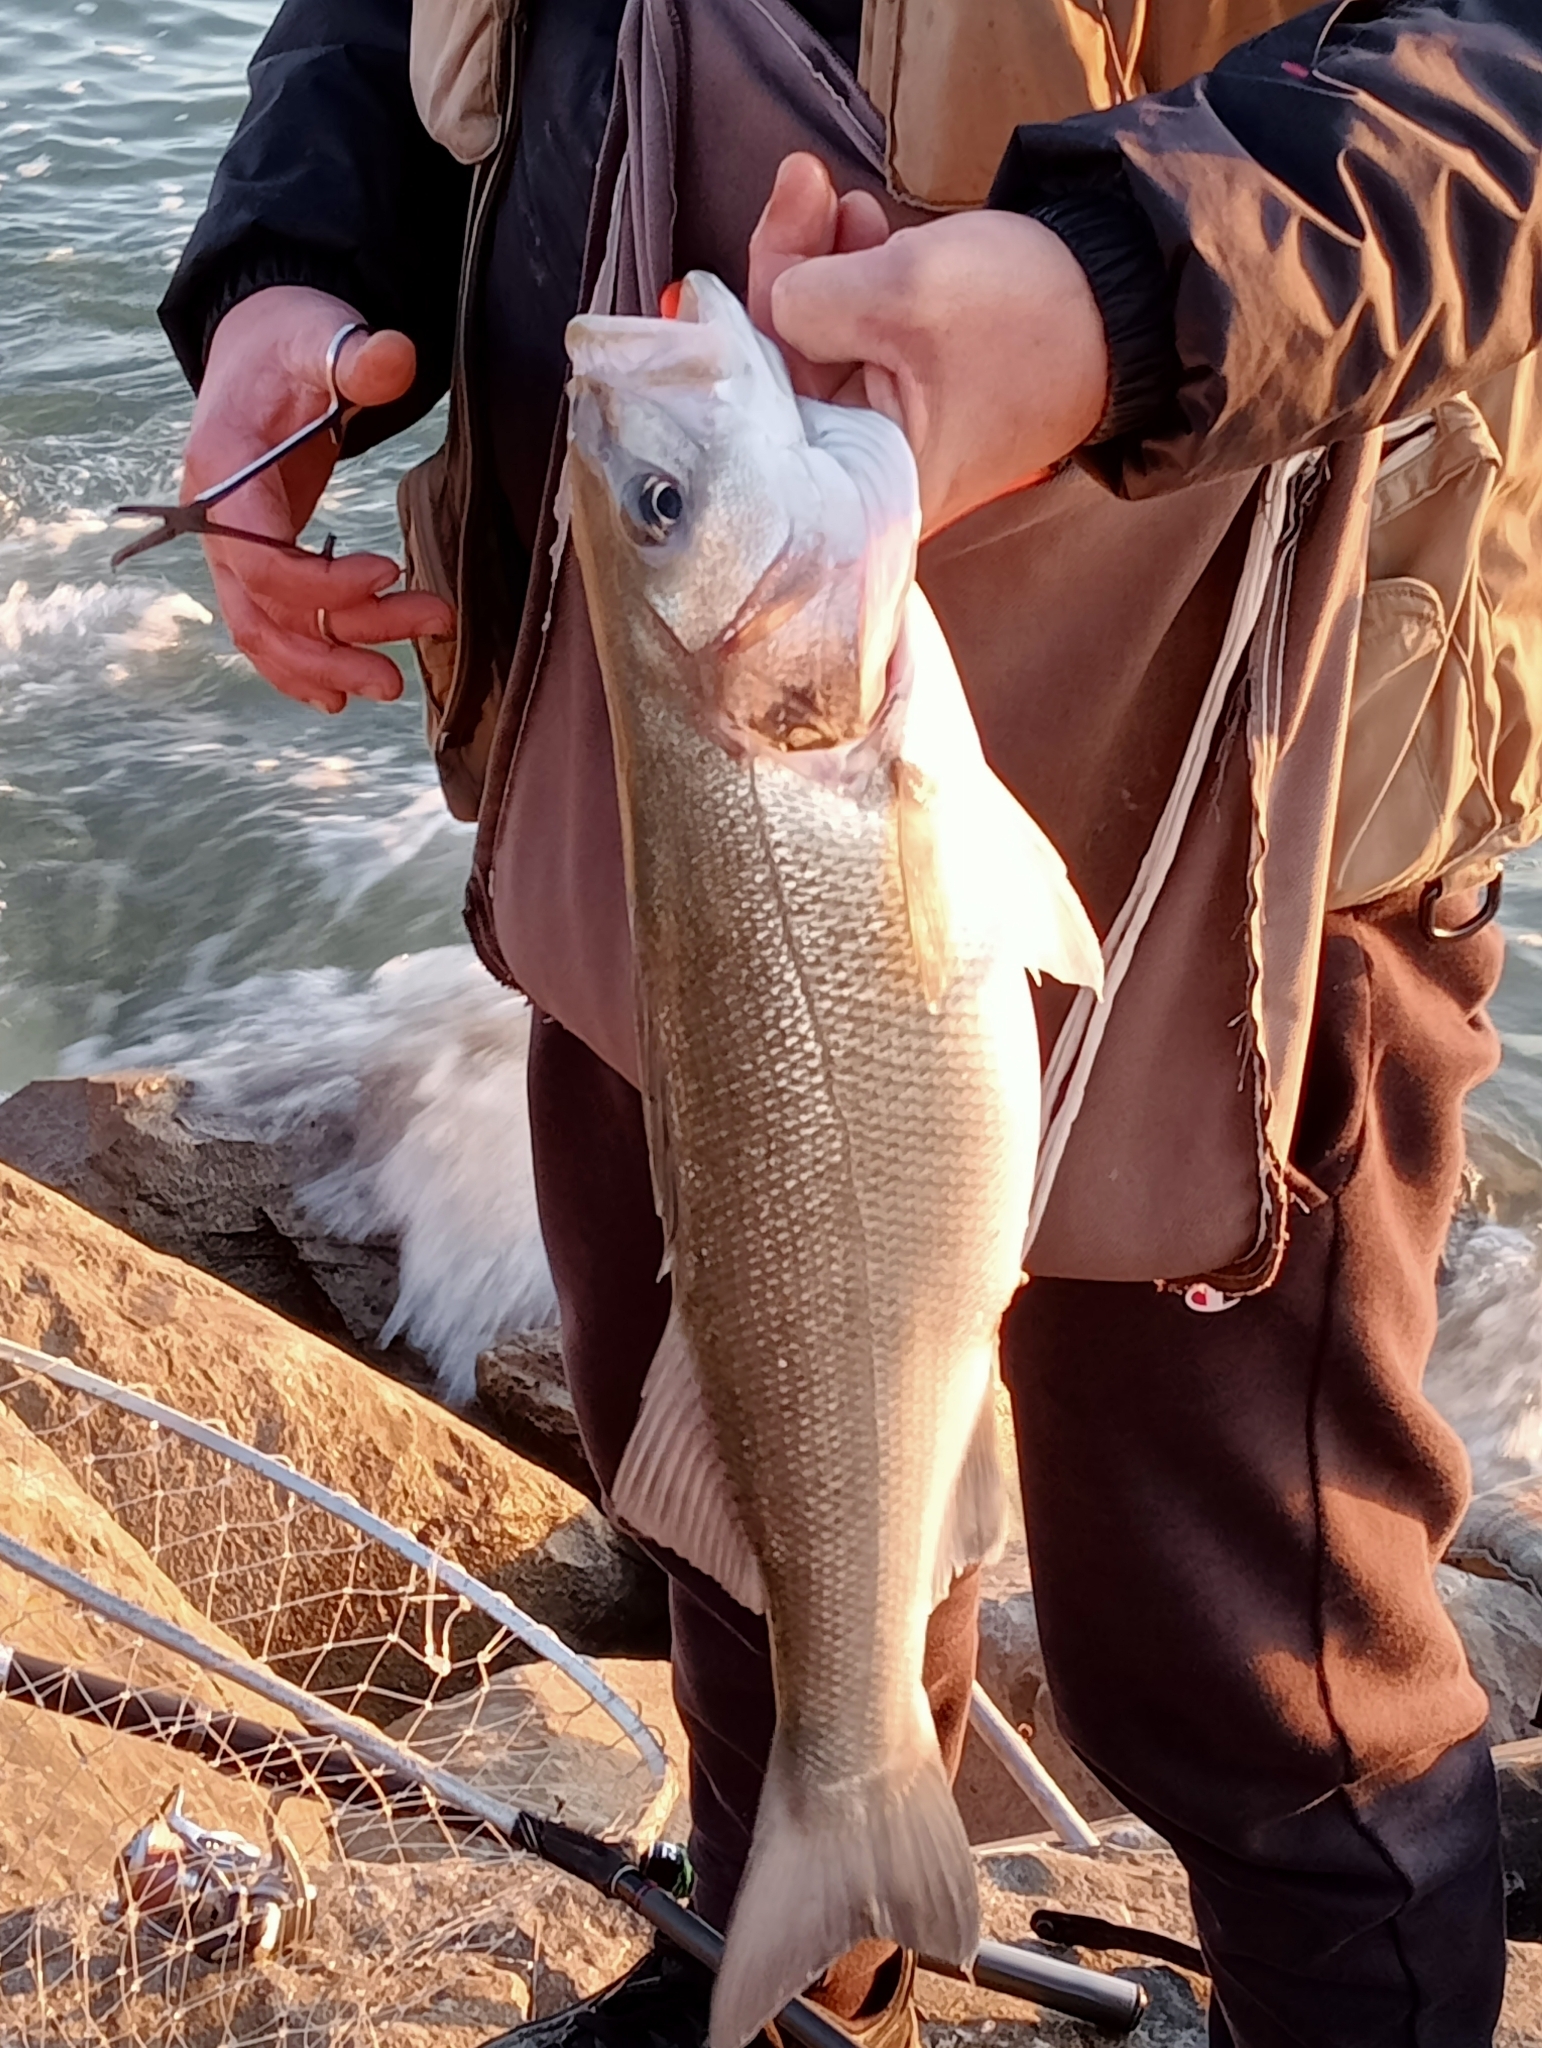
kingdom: Animalia
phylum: Chordata
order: Perciformes
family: Moronidae
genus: Dicentrarchus
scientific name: Dicentrarchus labrax
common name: European seabass
